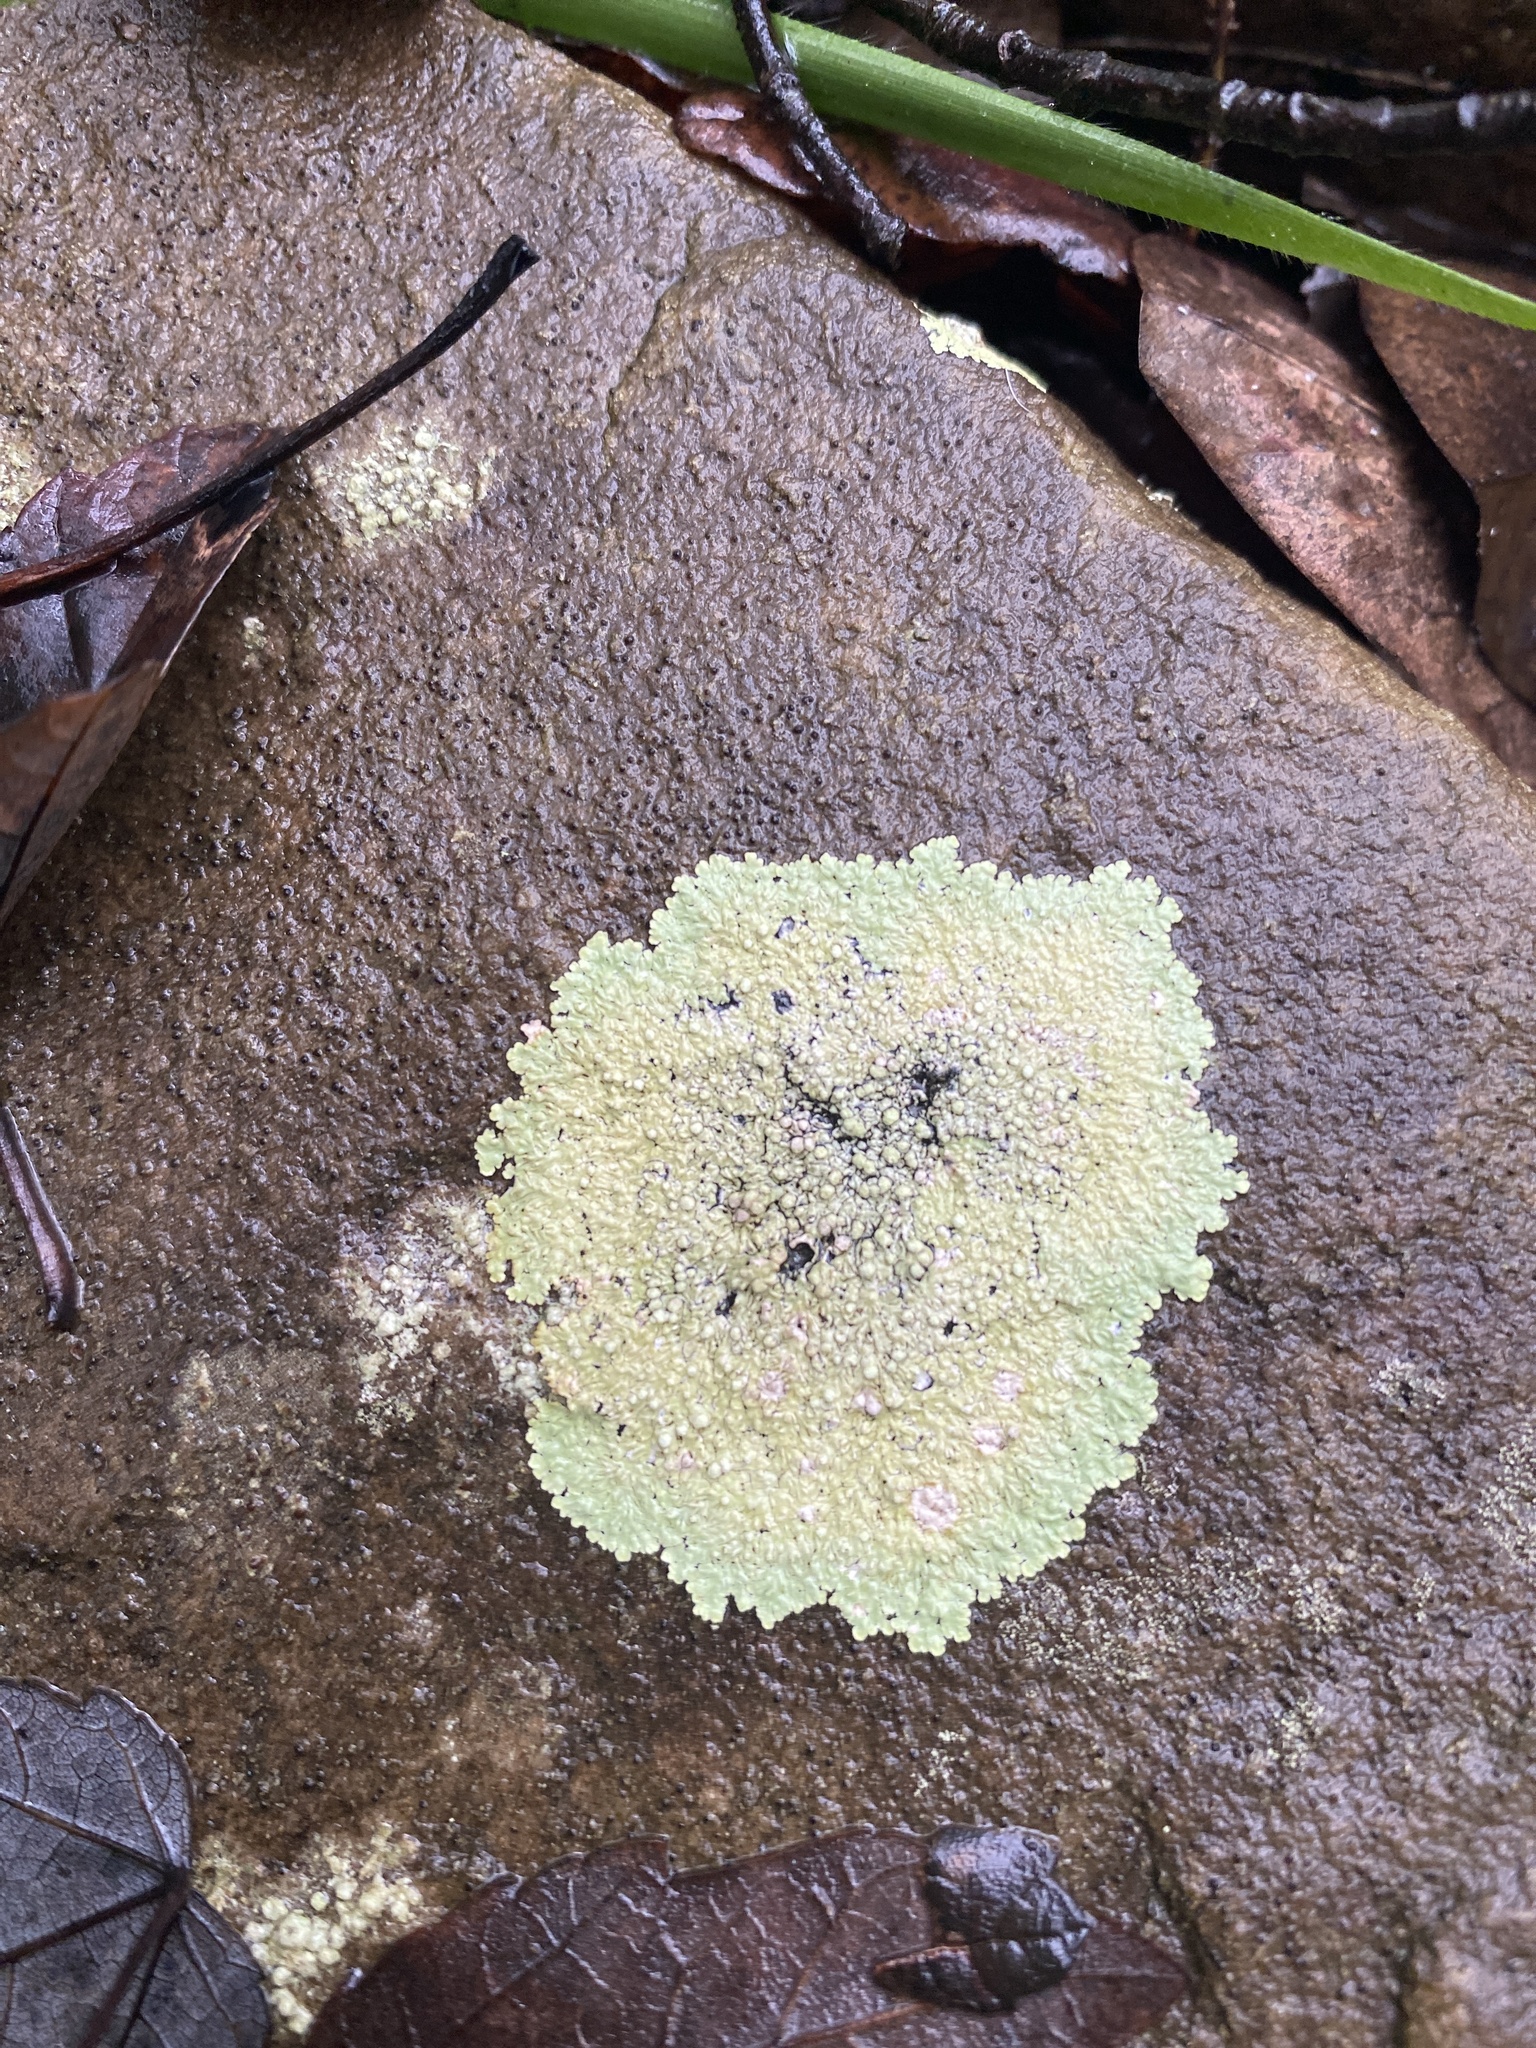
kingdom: Fungi
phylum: Ascomycota
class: Lecanoromycetes
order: Caliciales
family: Caliciaceae
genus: Dirinaria
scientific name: Dirinaria picta
